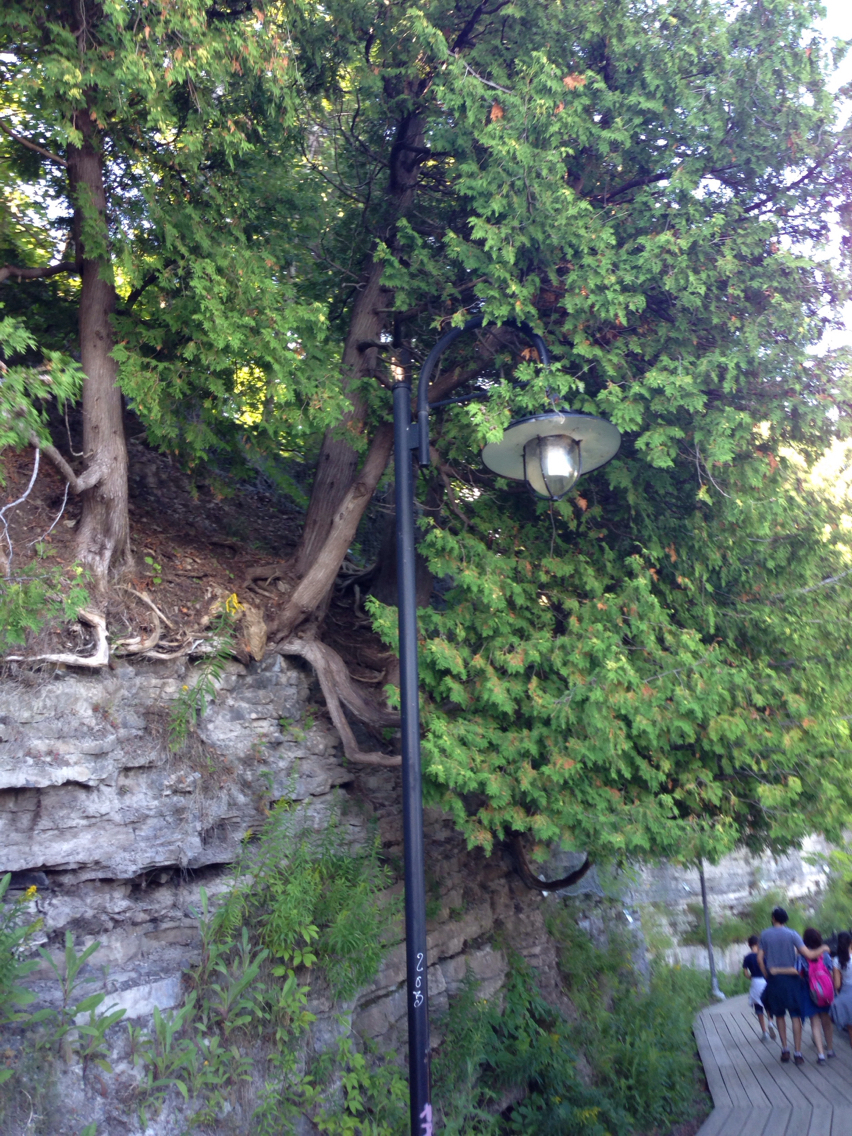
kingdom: Plantae
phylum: Tracheophyta
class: Pinopsida
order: Pinales
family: Cupressaceae
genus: Thuja
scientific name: Thuja occidentalis
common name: Northern white-cedar
